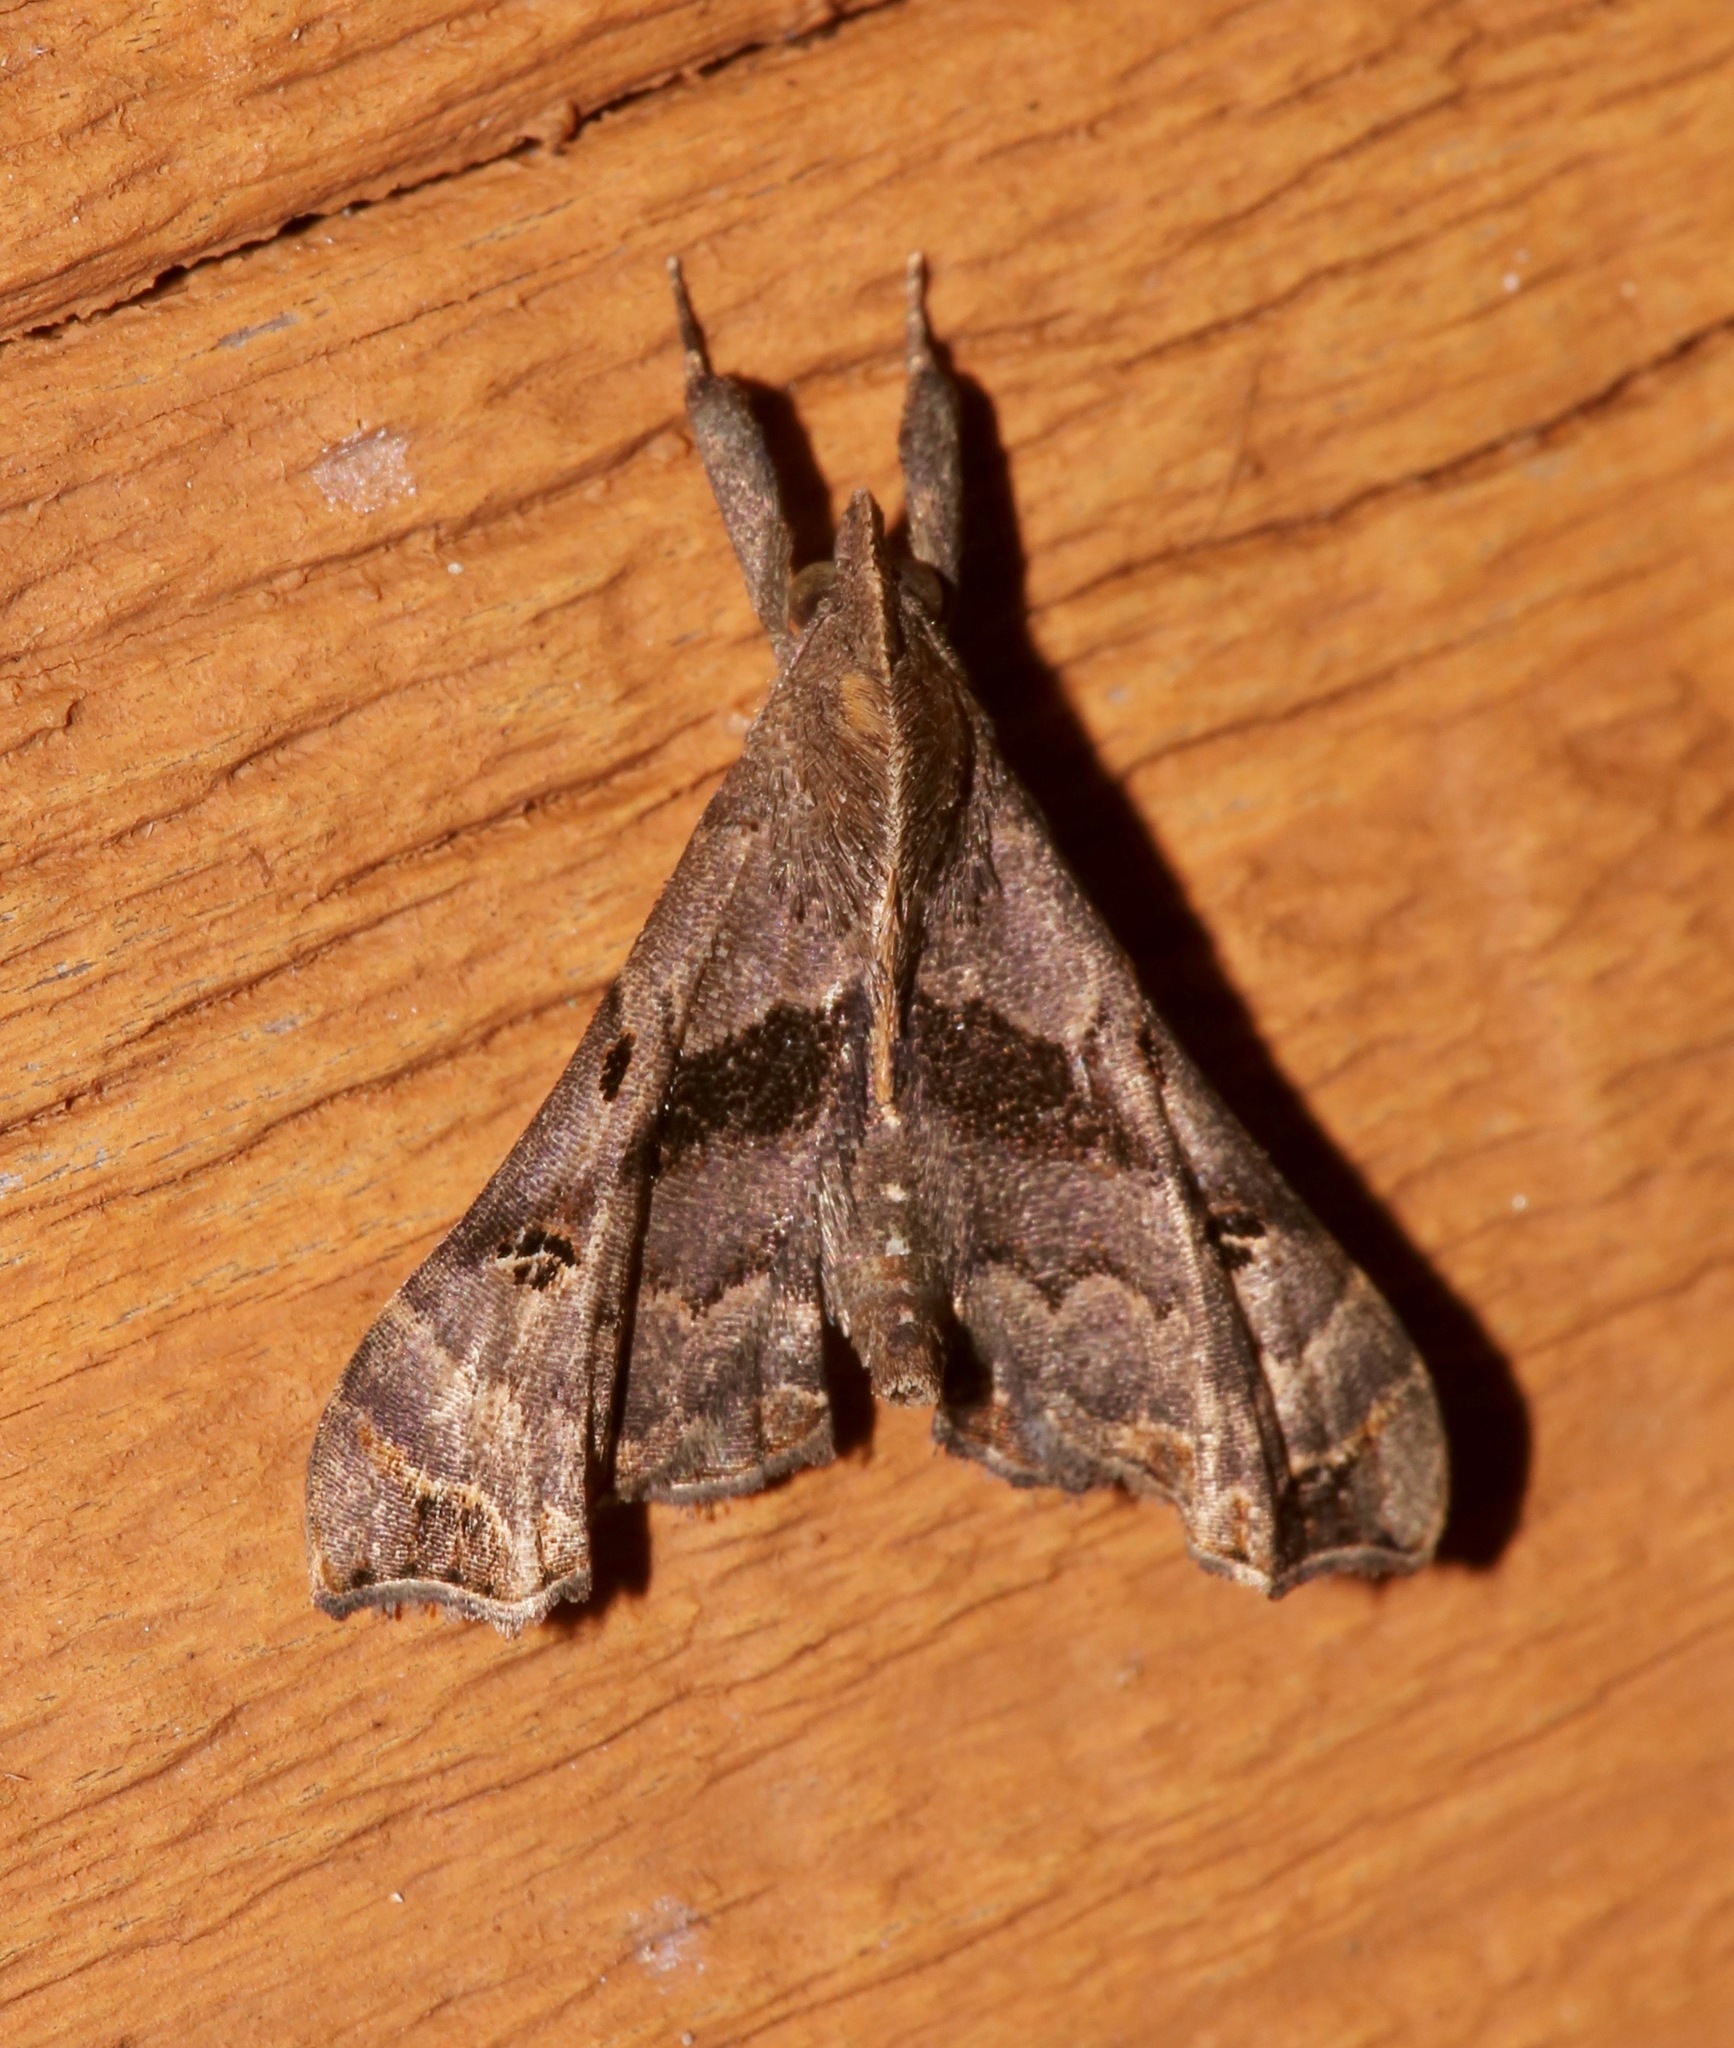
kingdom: Animalia
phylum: Arthropoda
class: Insecta
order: Lepidoptera
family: Erebidae
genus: Palthis
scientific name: Palthis asopialis
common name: Faint-spotted palthis moth
